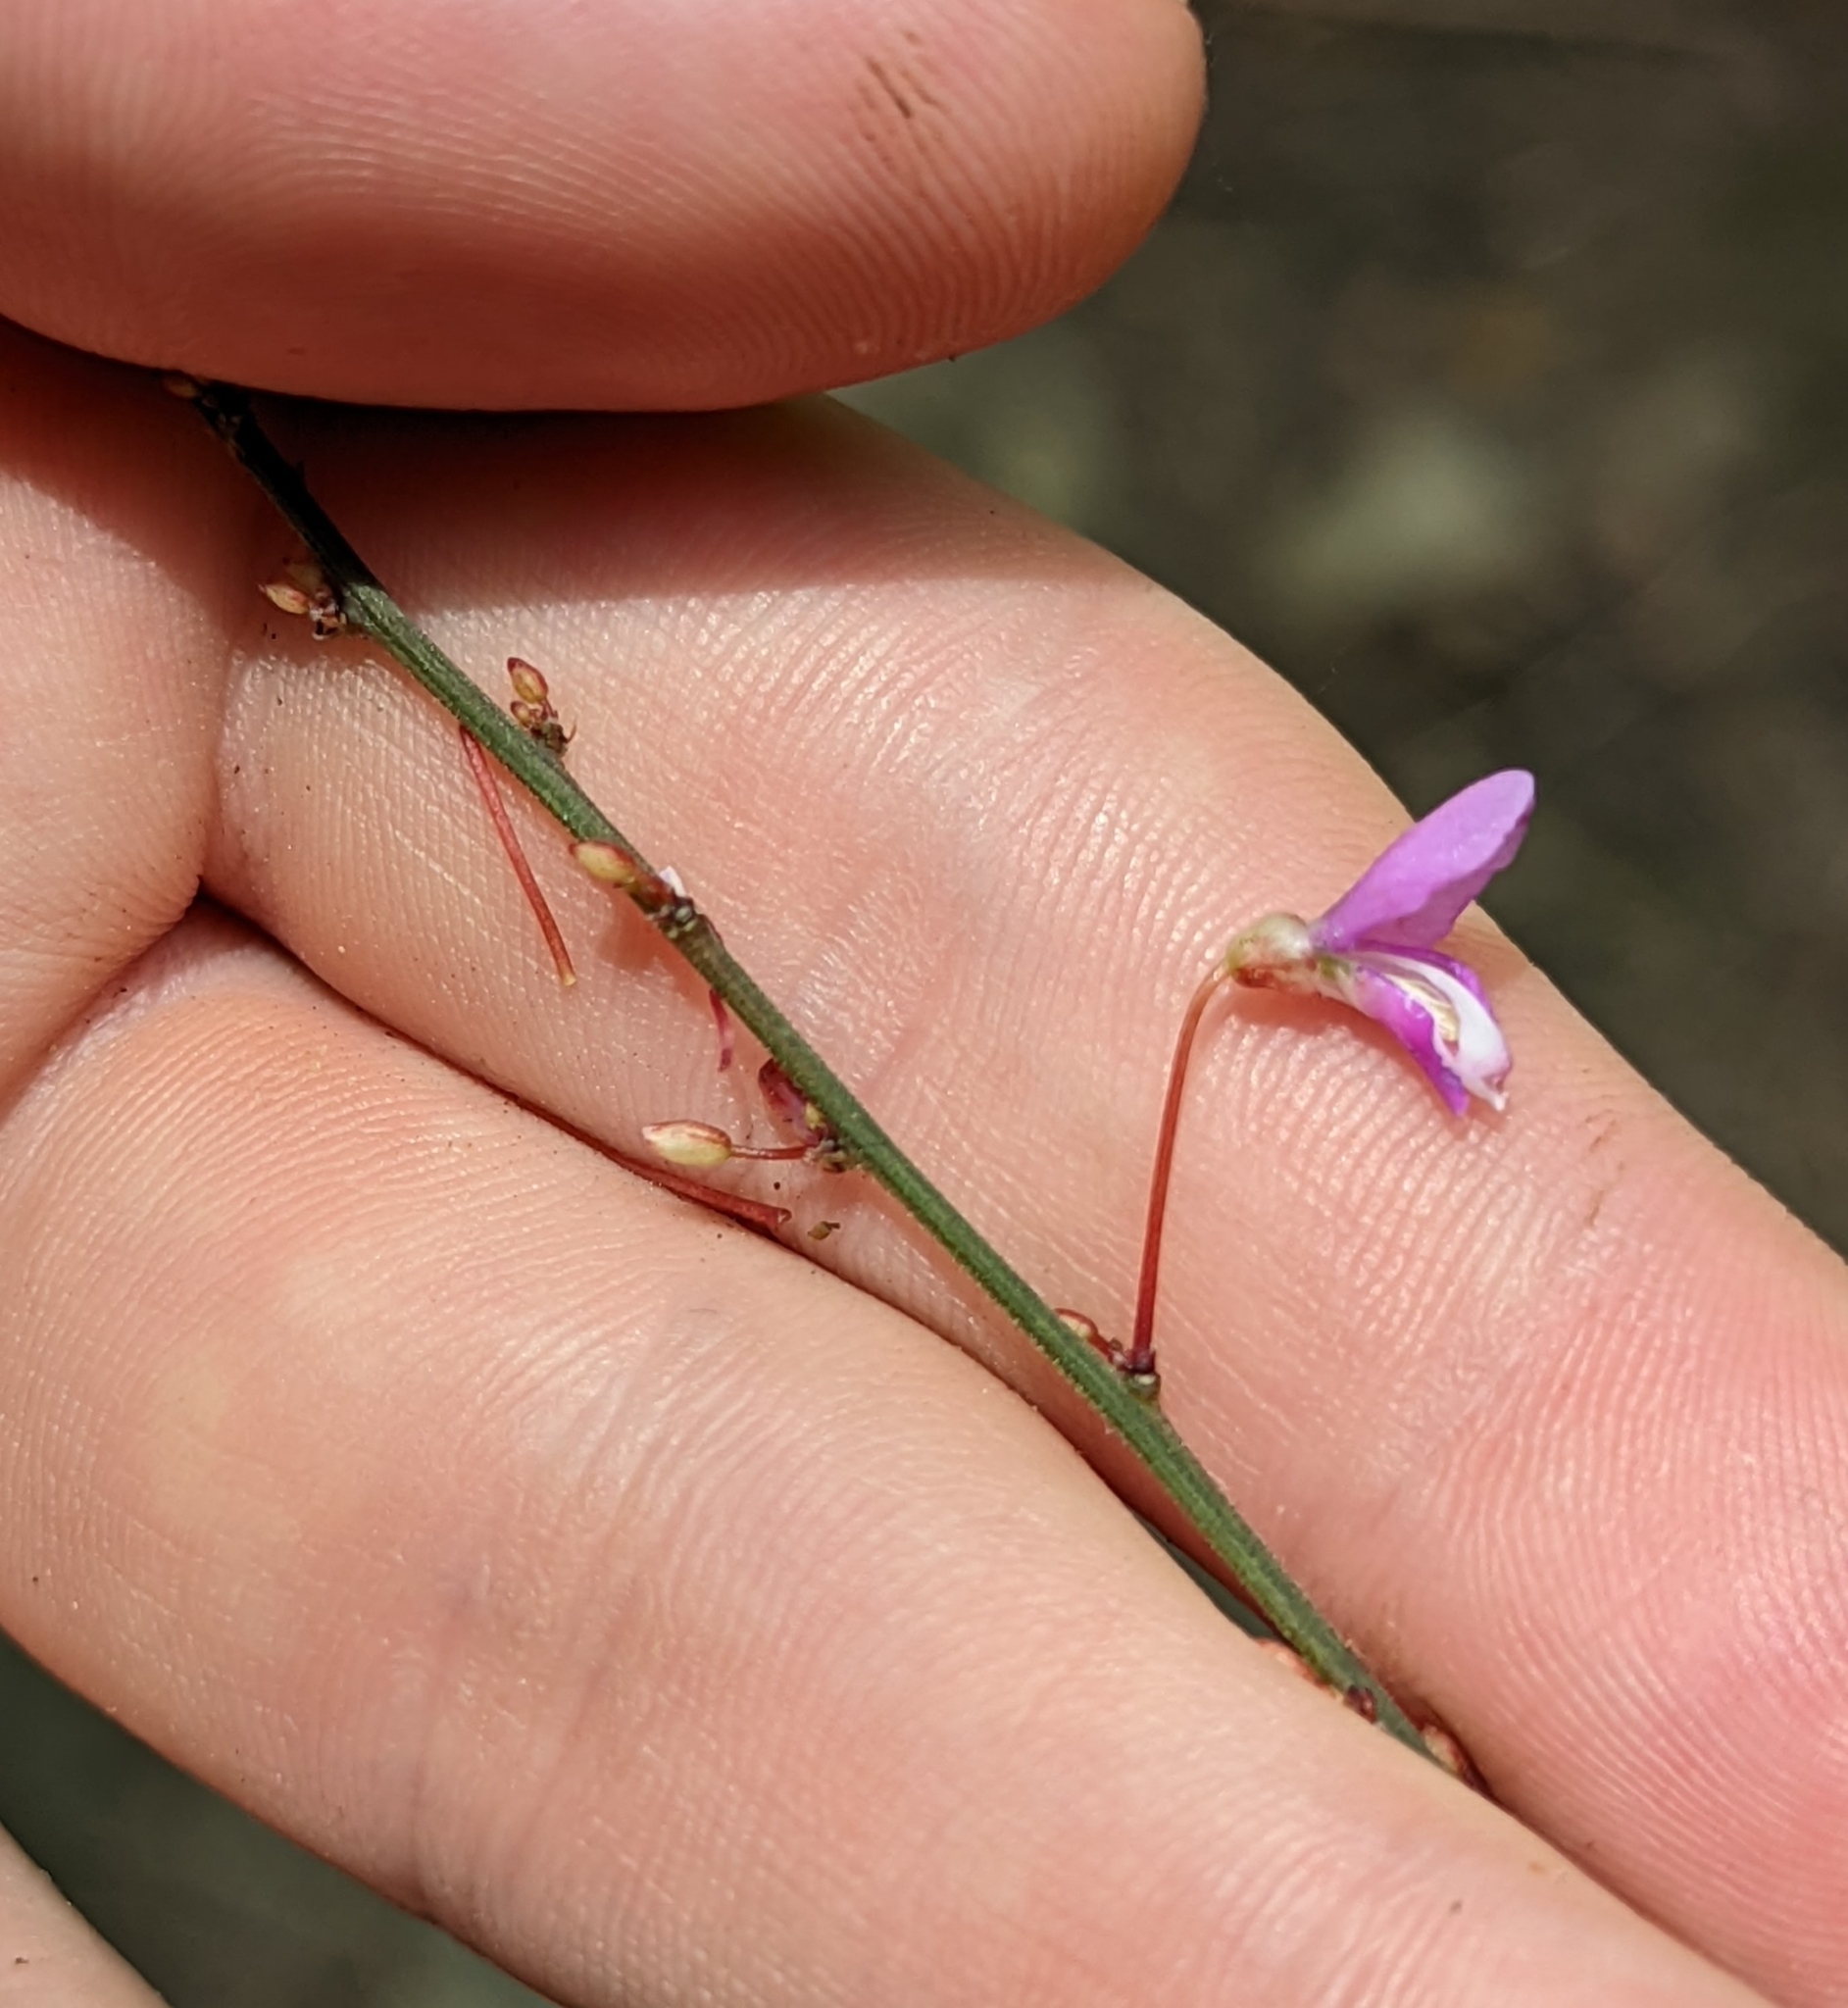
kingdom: Plantae
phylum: Tracheophyta
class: Magnoliopsida
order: Fabales
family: Fabaceae
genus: Hylodesmum
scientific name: Hylodesmum nudiflorum
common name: Bare-stemmed tick-trefoil
